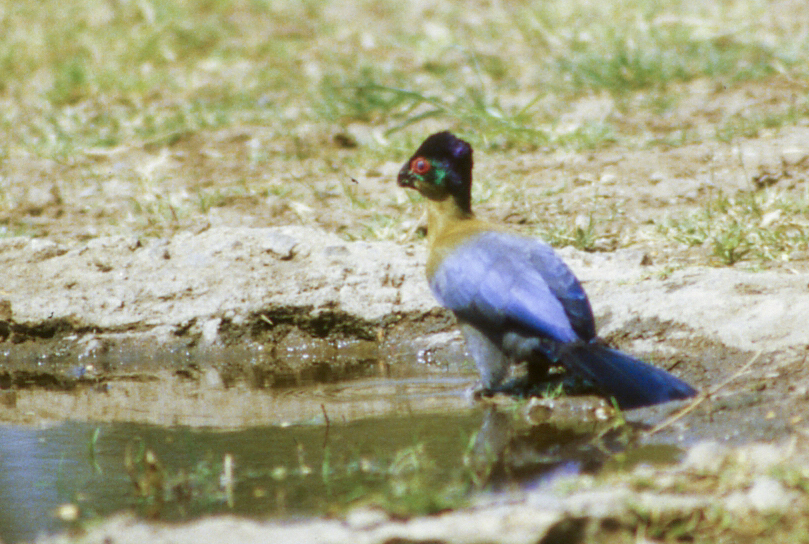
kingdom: Animalia
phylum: Chordata
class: Aves
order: Musophagiformes
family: Musophagidae
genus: Tauraco
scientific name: Tauraco porphyreolophus
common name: Purple-crested turaco
